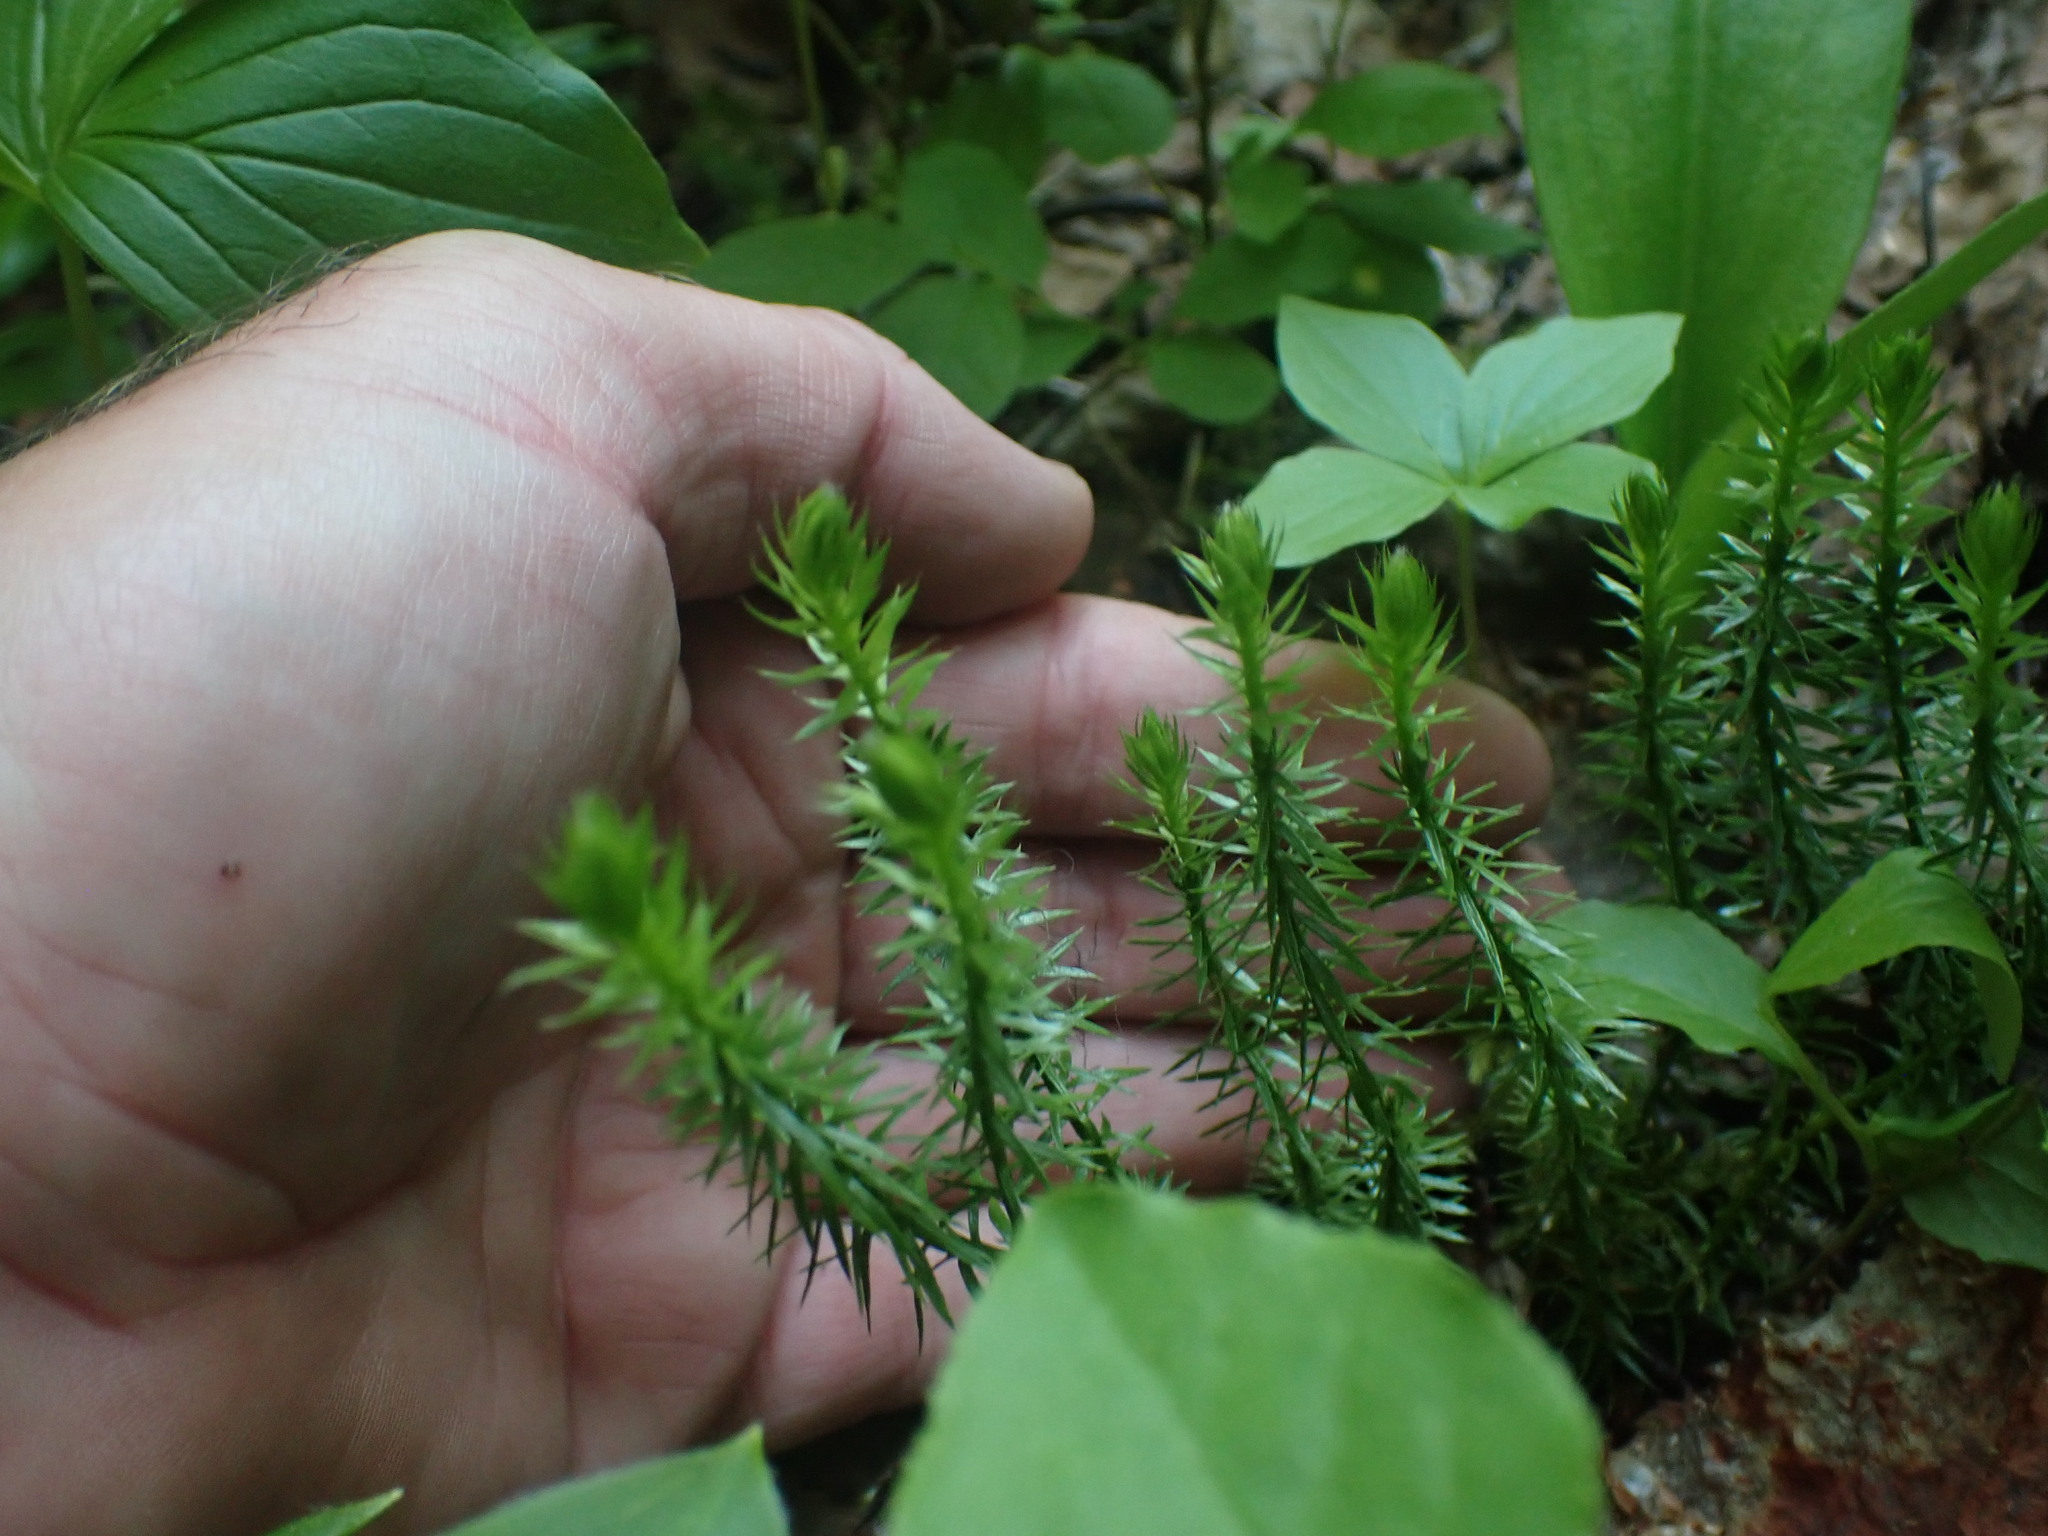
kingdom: Plantae
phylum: Tracheophyta
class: Lycopodiopsida
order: Lycopodiales
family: Lycopodiaceae
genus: Spinulum
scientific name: Spinulum annotinum
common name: Interrupted club-moss
